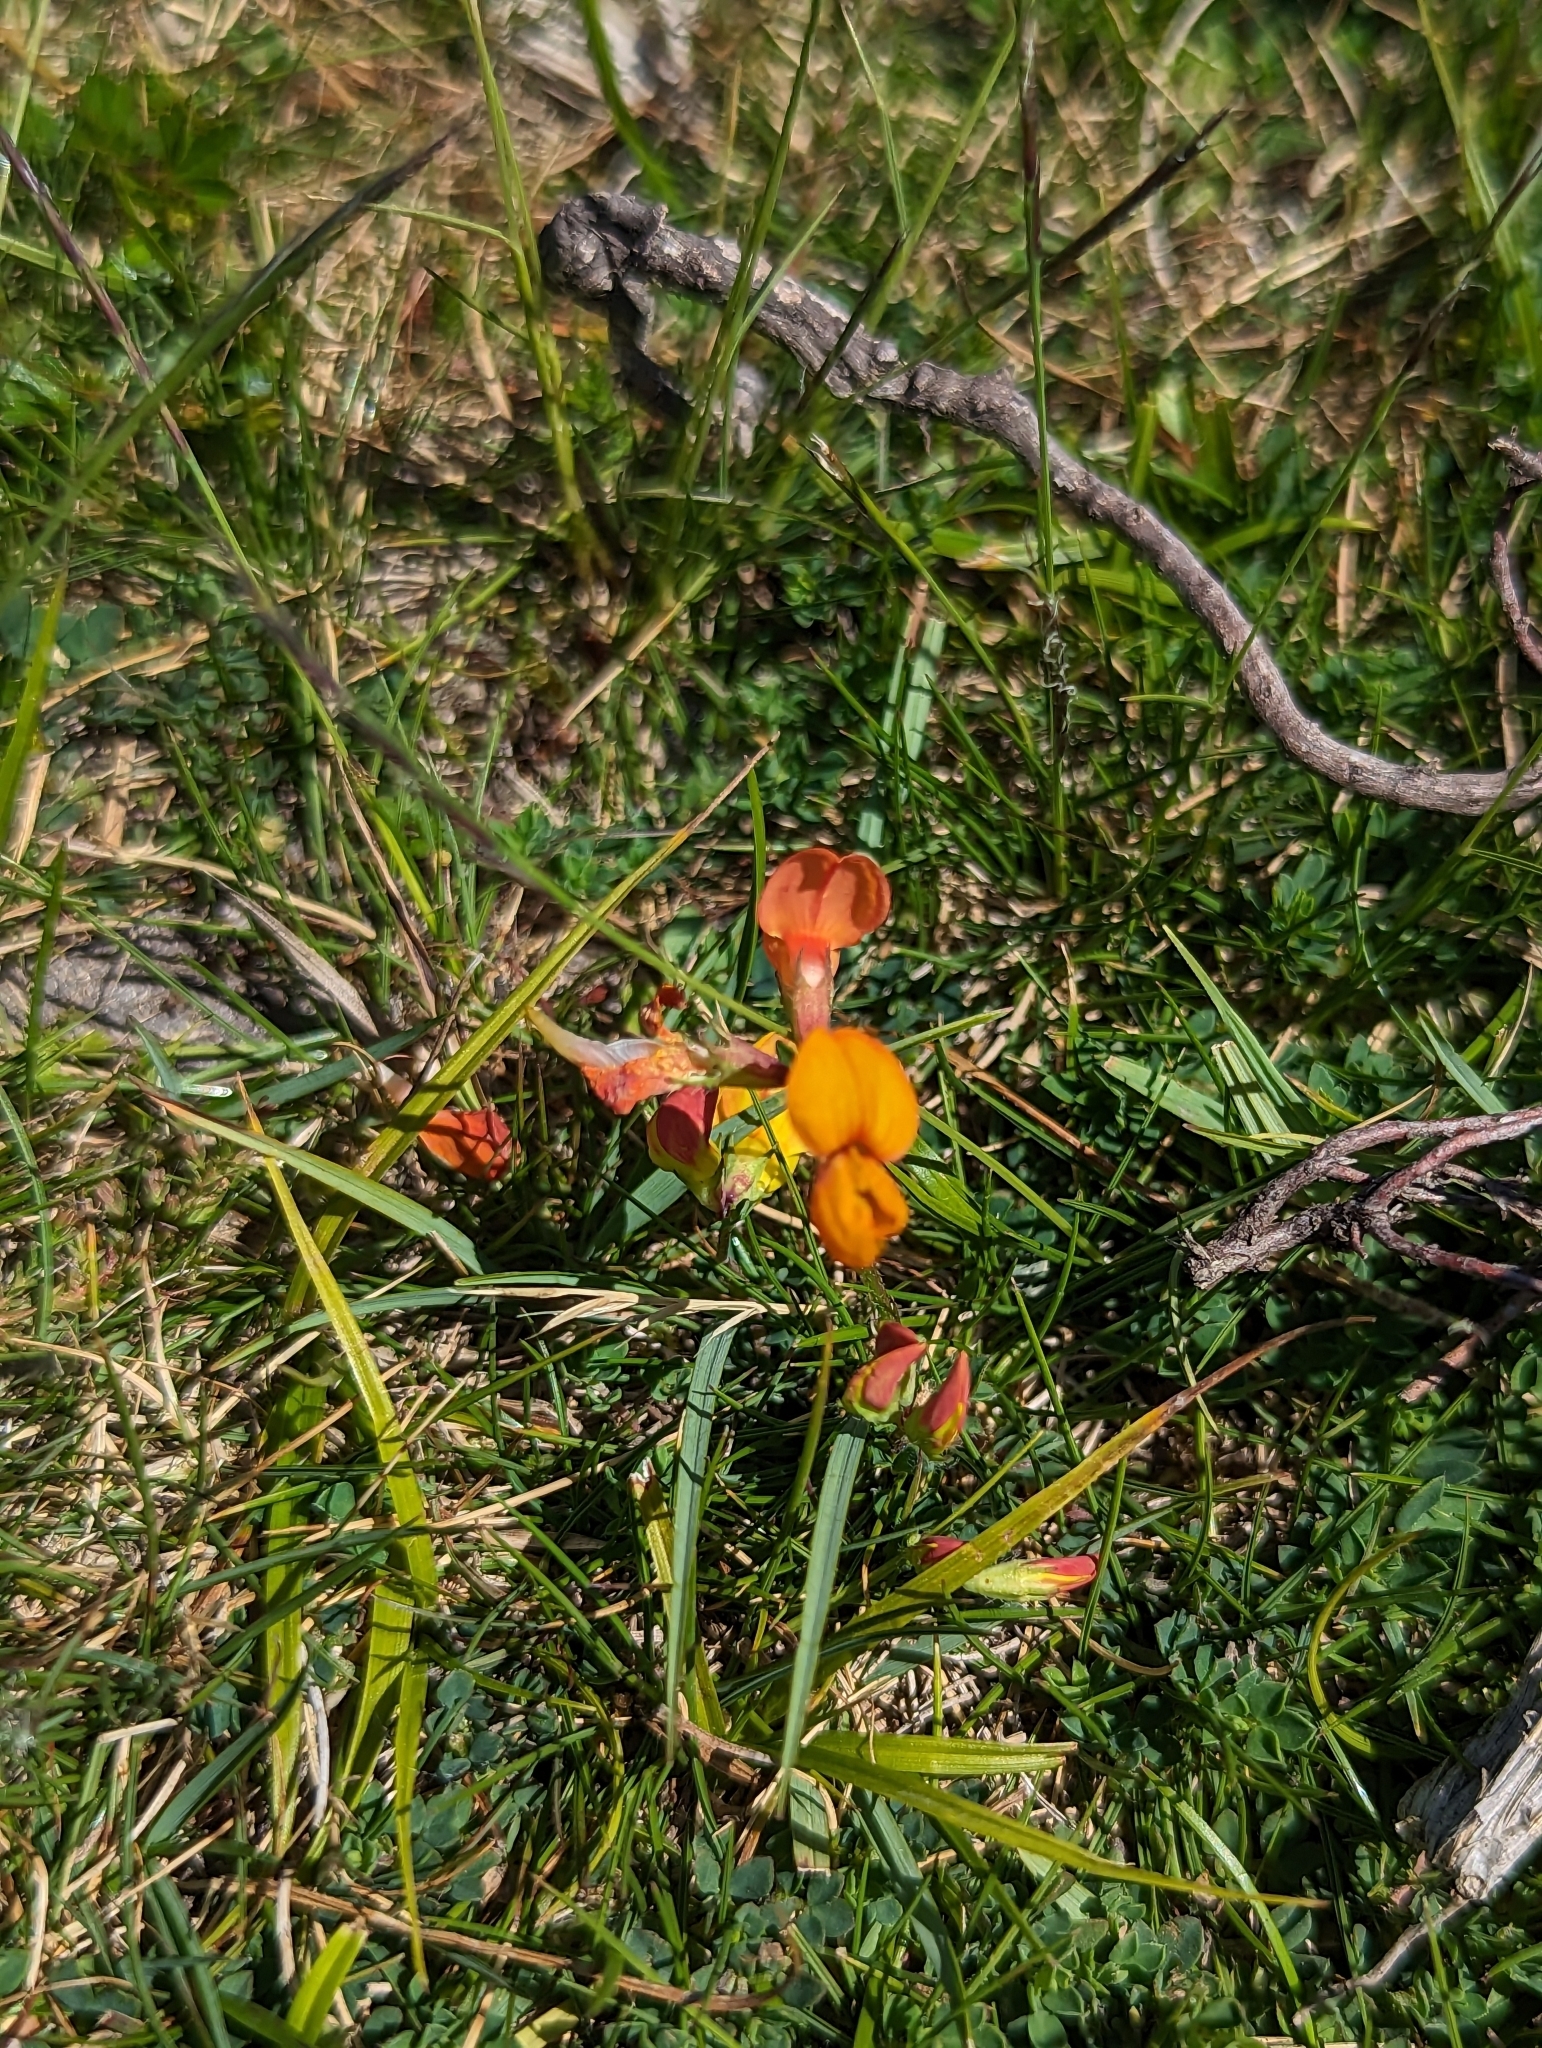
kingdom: Plantae
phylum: Tracheophyta
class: Magnoliopsida
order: Fabales
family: Fabaceae
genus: Lotus
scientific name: Lotus corniculatus
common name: Common bird's-foot-trefoil
